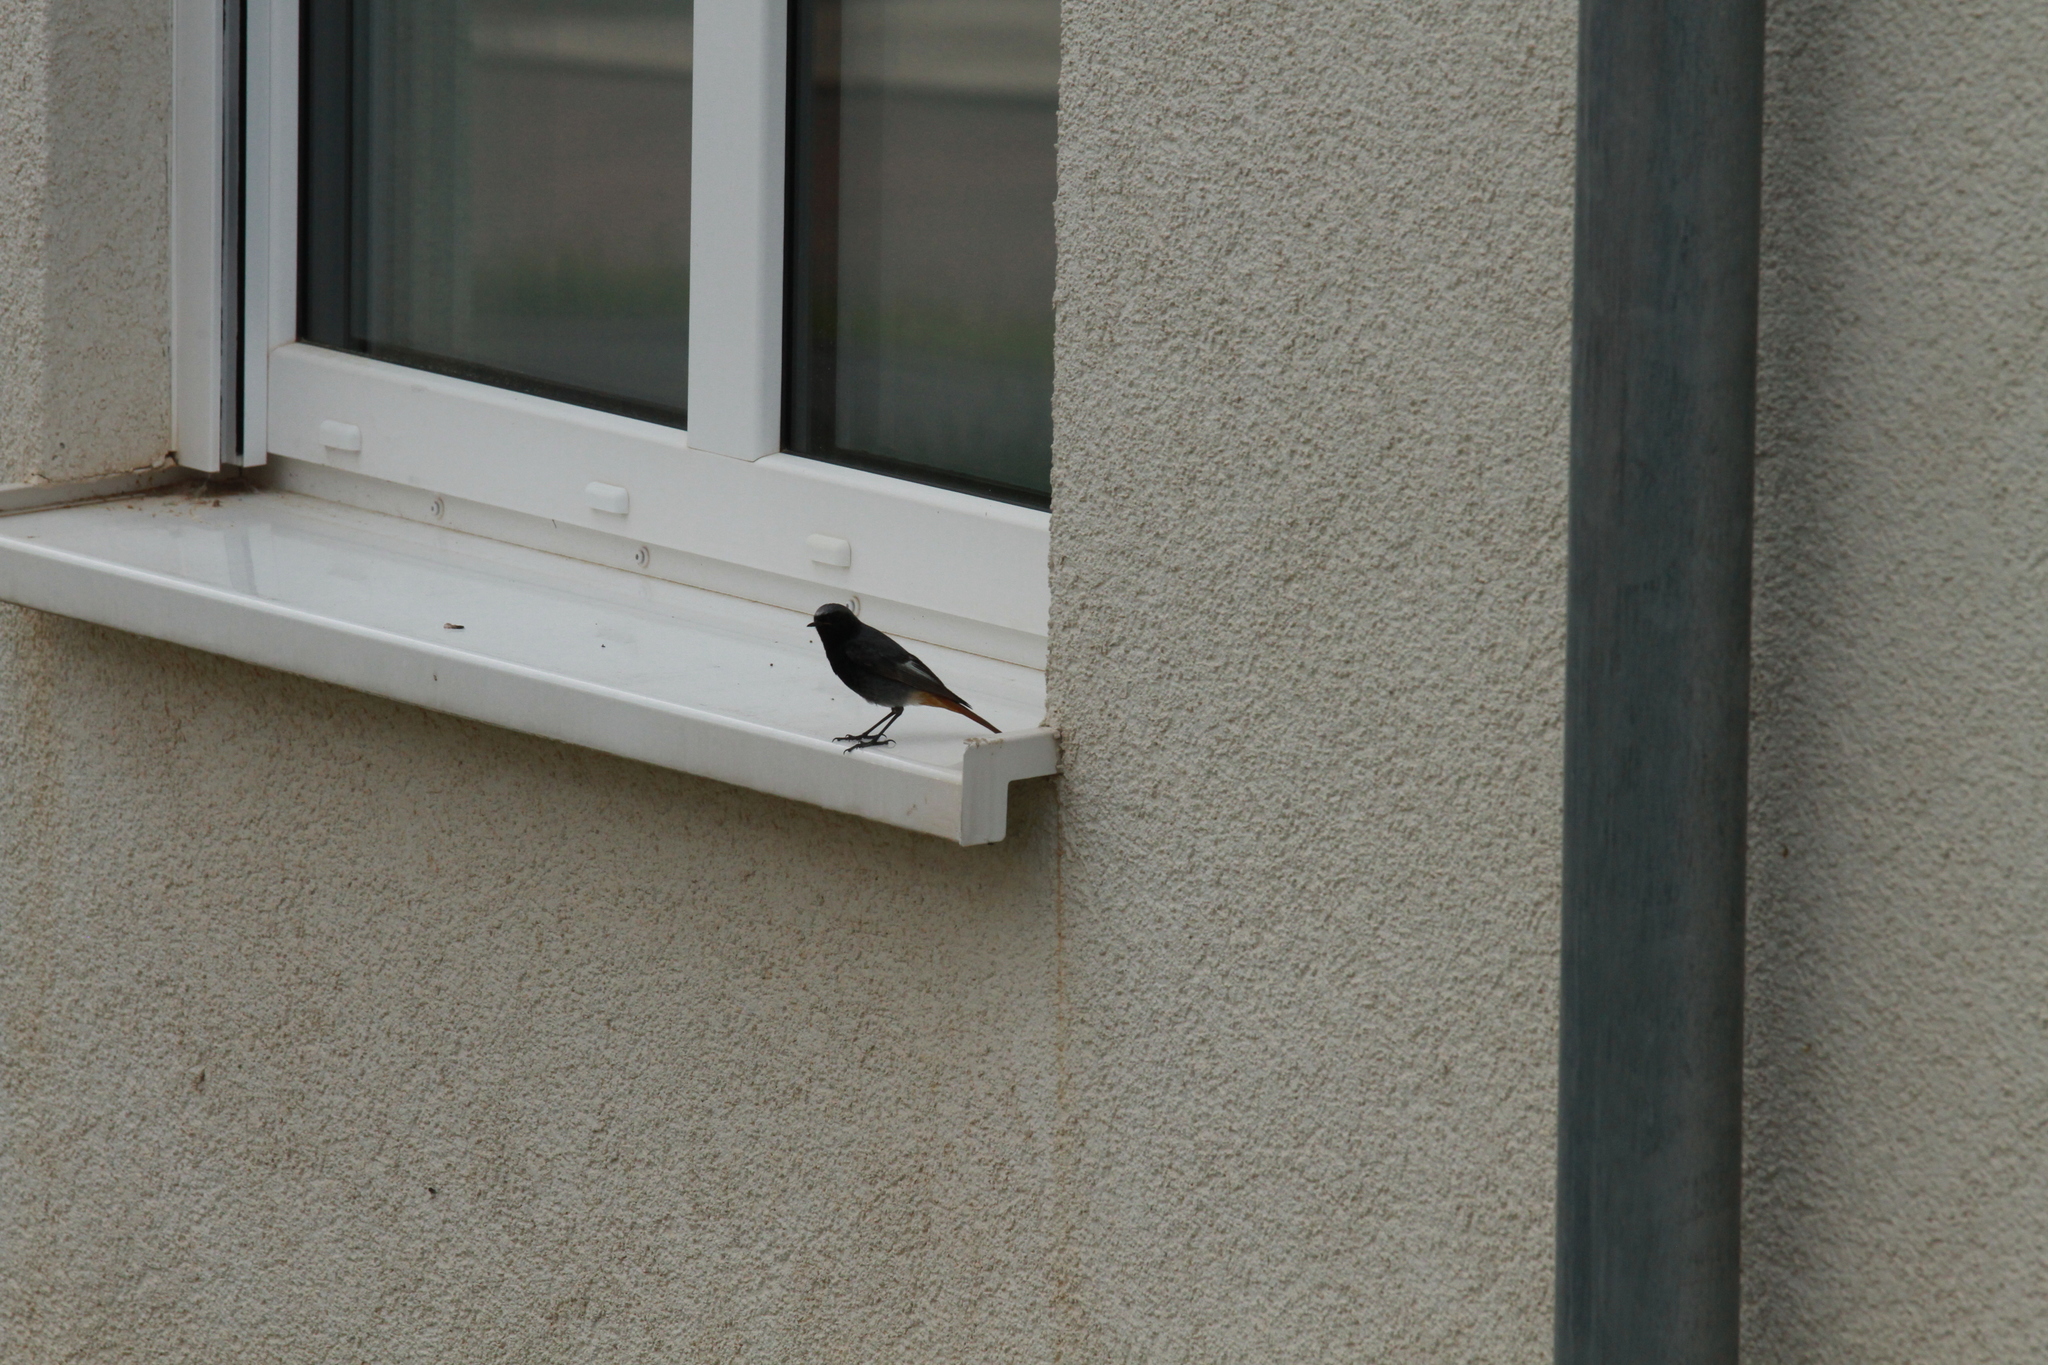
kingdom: Animalia
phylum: Chordata
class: Aves
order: Passeriformes
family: Muscicapidae
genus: Phoenicurus
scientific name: Phoenicurus ochruros
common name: Black redstart
